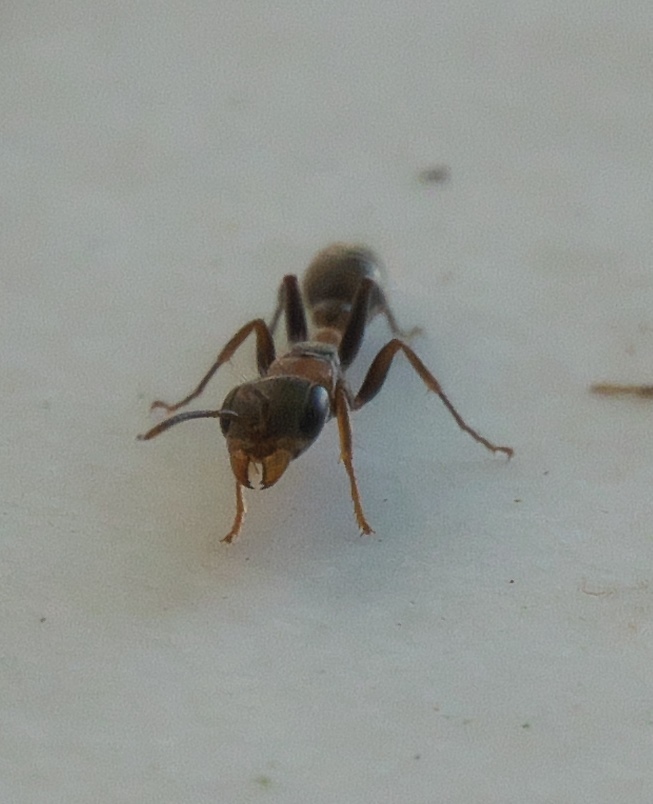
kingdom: Animalia
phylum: Arthropoda
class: Insecta
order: Hymenoptera
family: Formicidae
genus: Pseudomyrmex
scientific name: Pseudomyrmex gracilis
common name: Graceful twig ant
